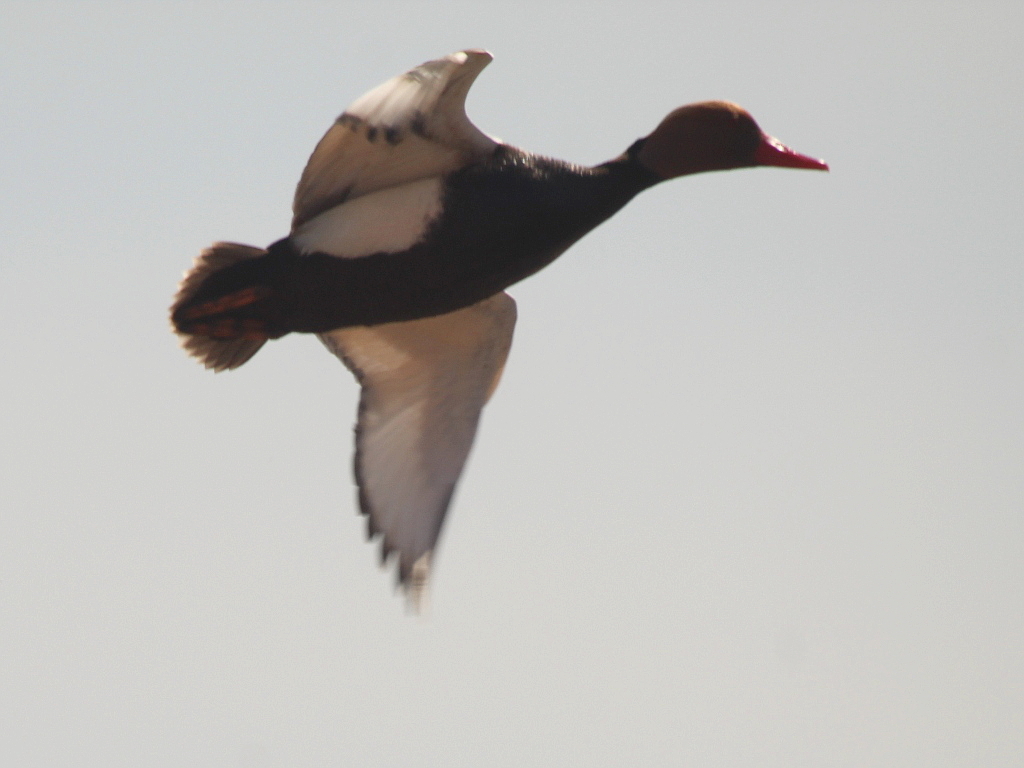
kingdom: Animalia
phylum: Chordata
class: Aves
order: Anseriformes
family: Anatidae
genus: Netta
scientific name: Netta rufina
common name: Red-crested pochard
